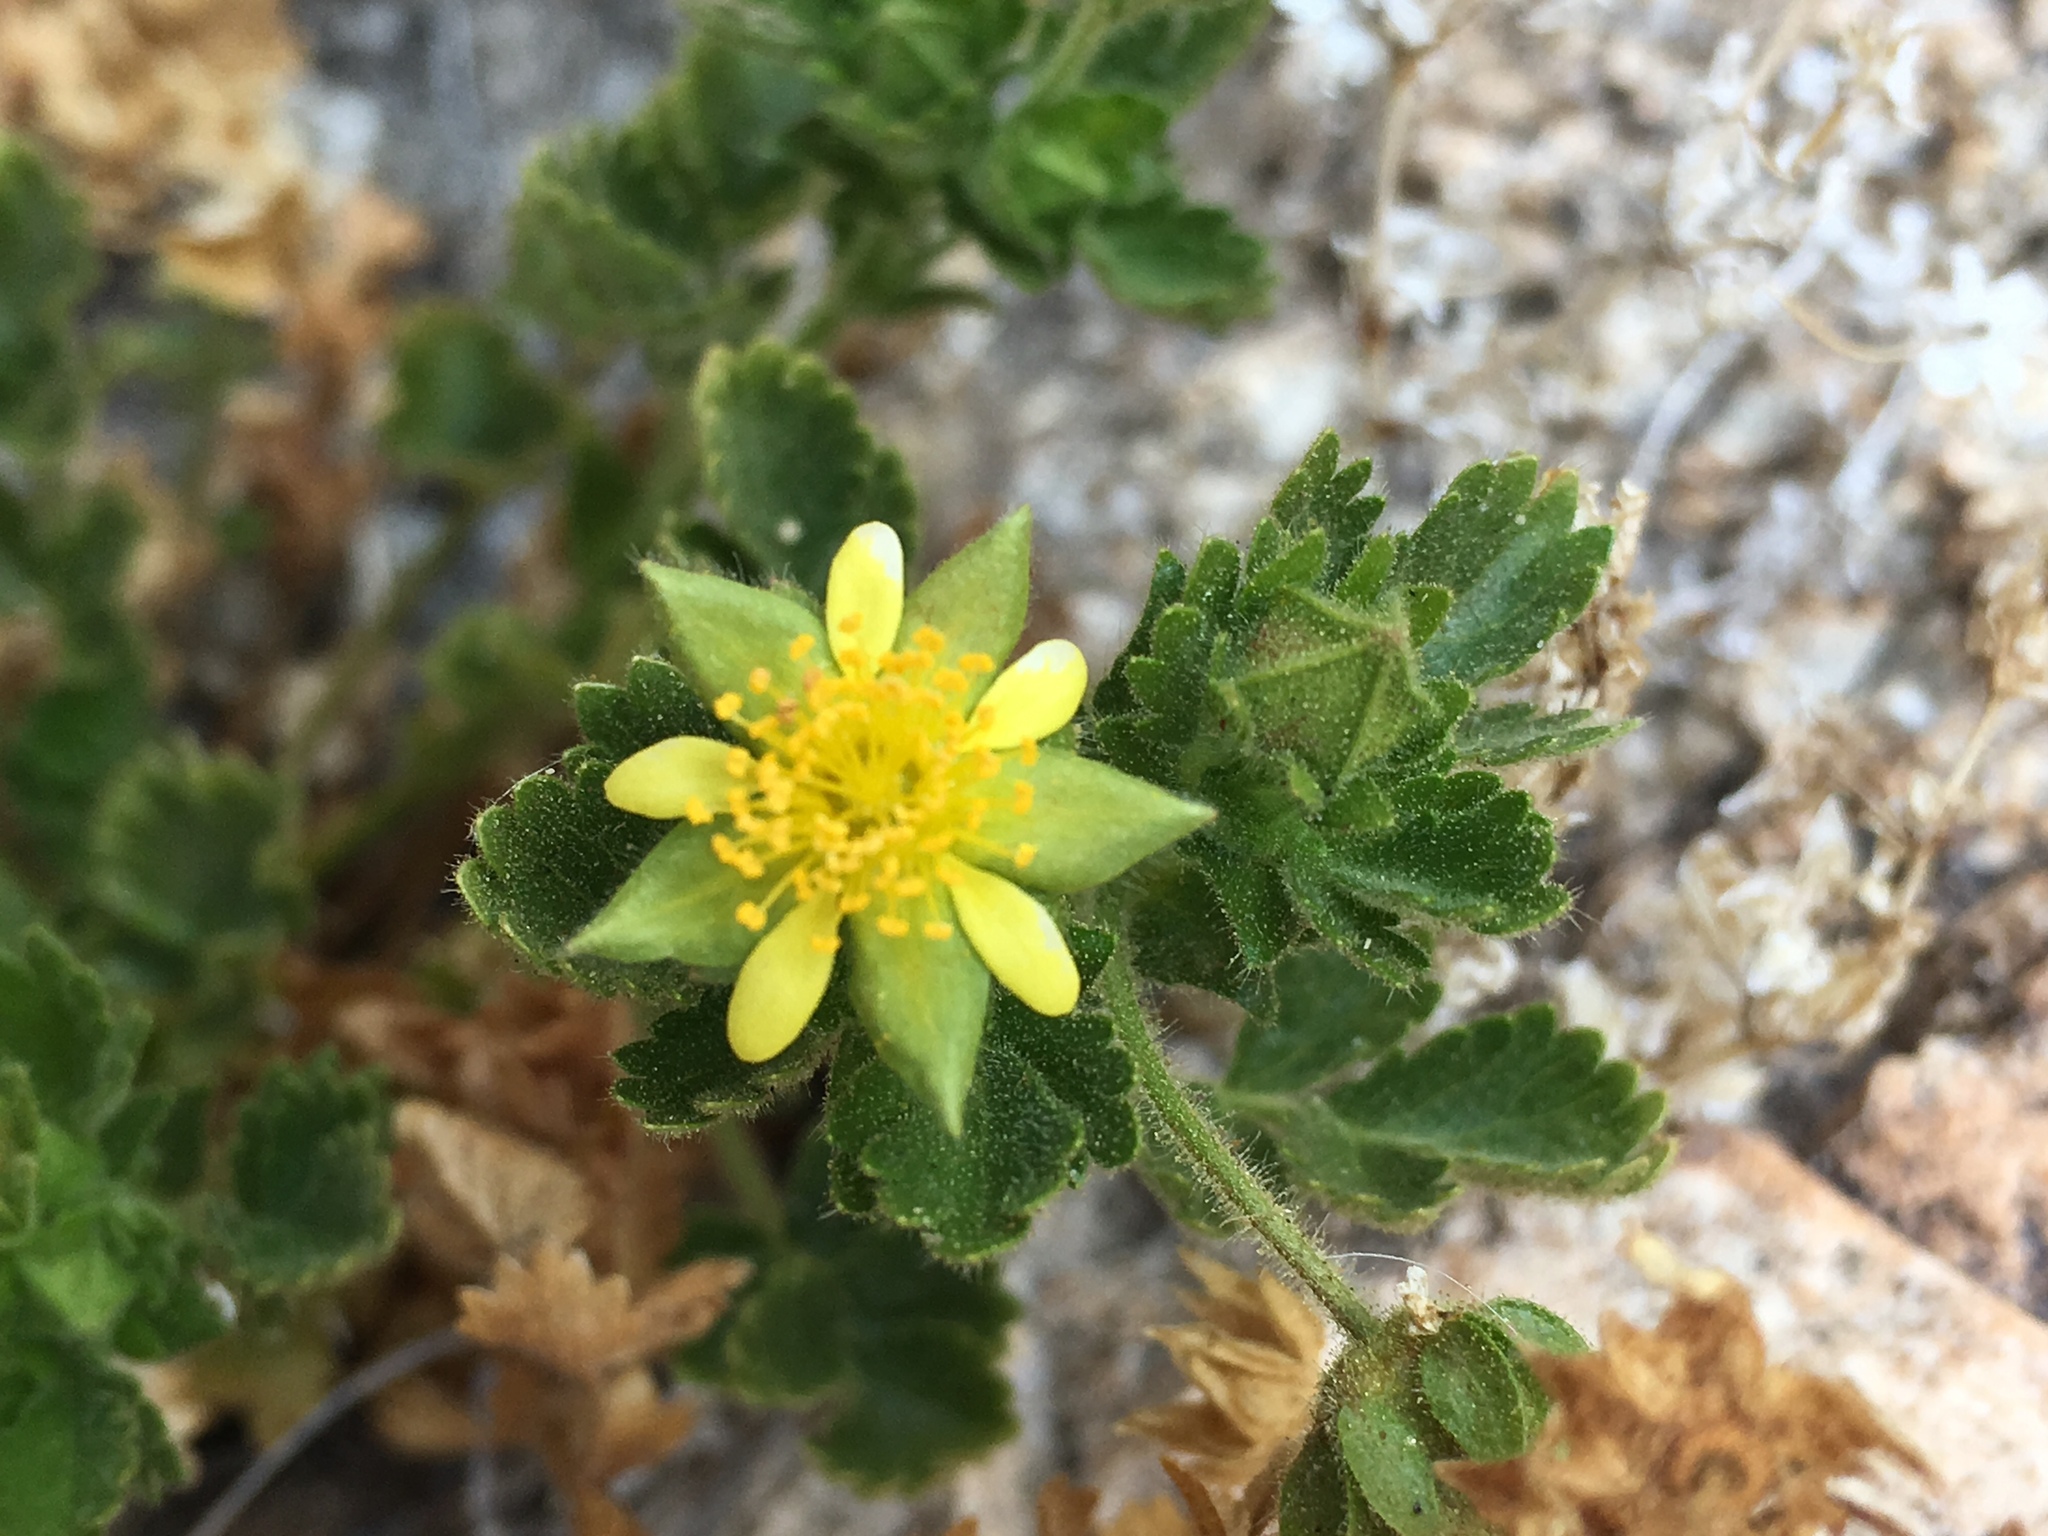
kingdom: Plantae
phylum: Tracheophyta
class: Magnoliopsida
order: Rosales
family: Rosaceae
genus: Potentilla
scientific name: Potentilla saxosa
